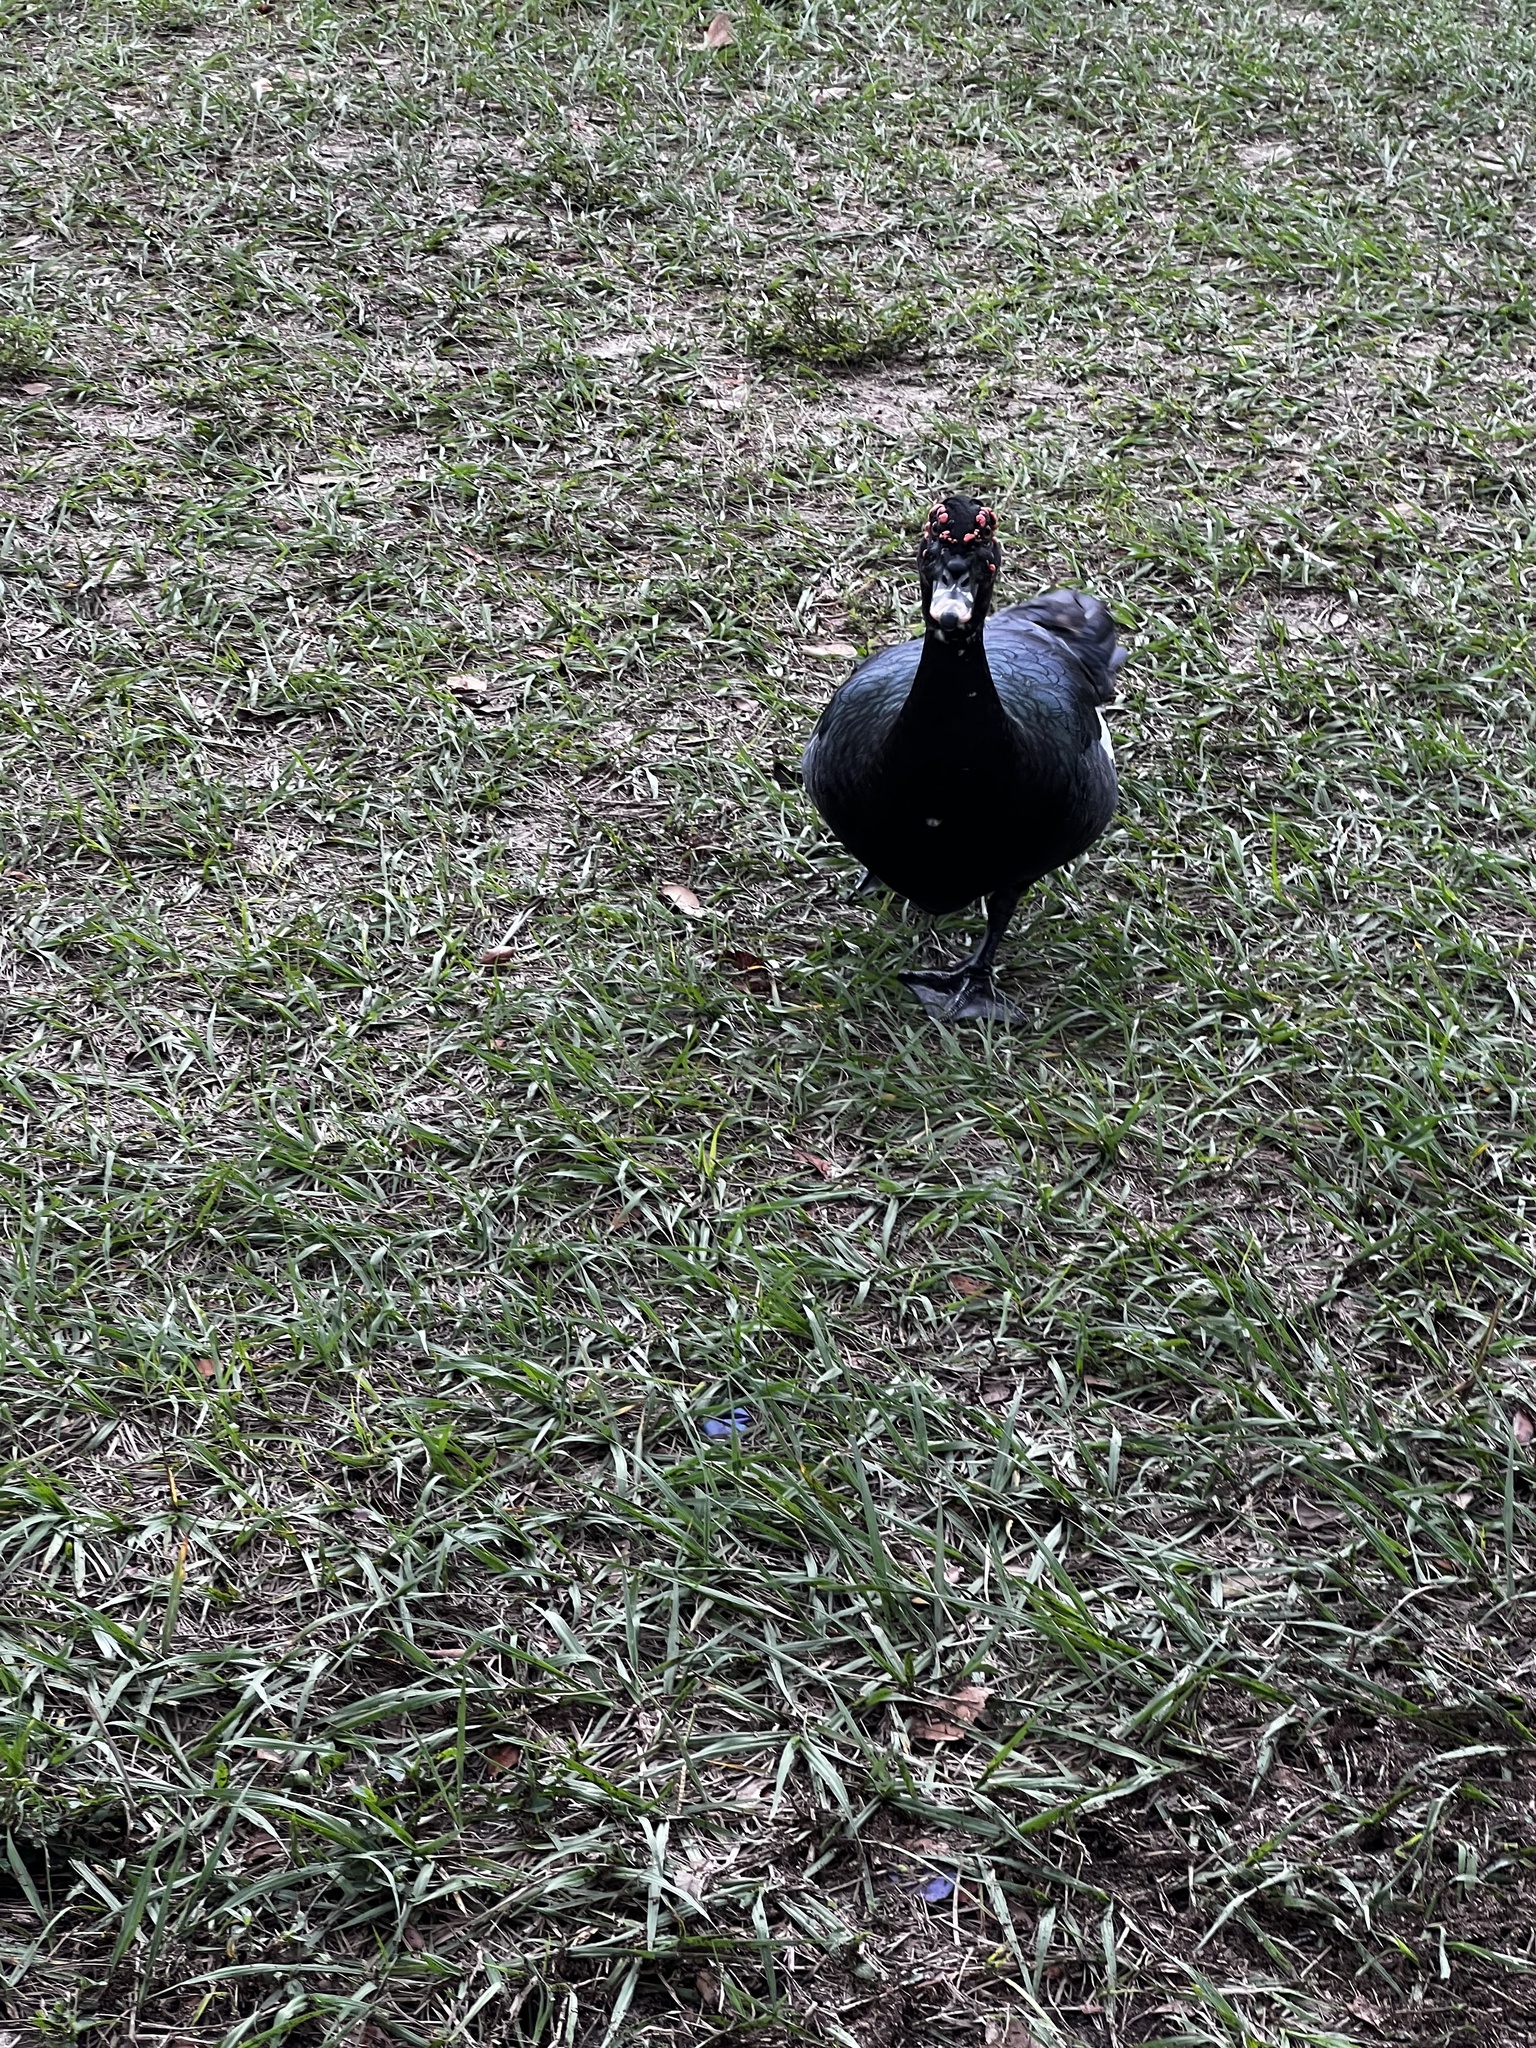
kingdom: Animalia
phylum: Chordata
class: Aves
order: Anseriformes
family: Anatidae
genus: Cairina
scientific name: Cairina moschata
